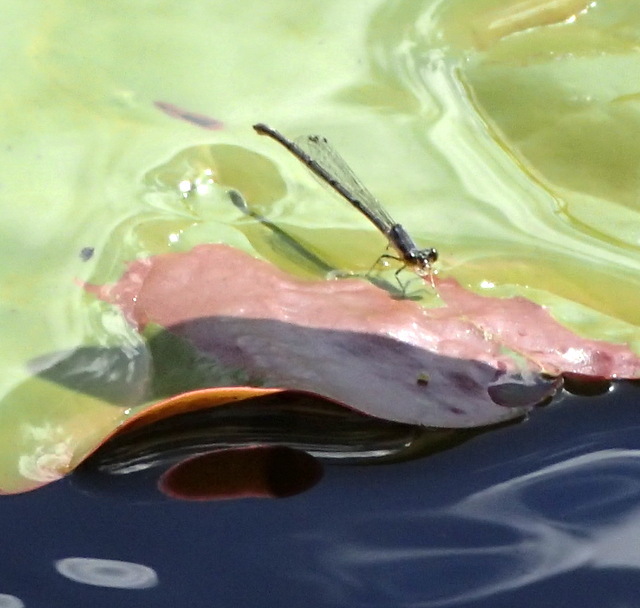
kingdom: Animalia
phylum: Arthropoda
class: Insecta
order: Odonata
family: Coenagrionidae
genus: Ischnura
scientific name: Ischnura posita
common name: Fragile forktail
